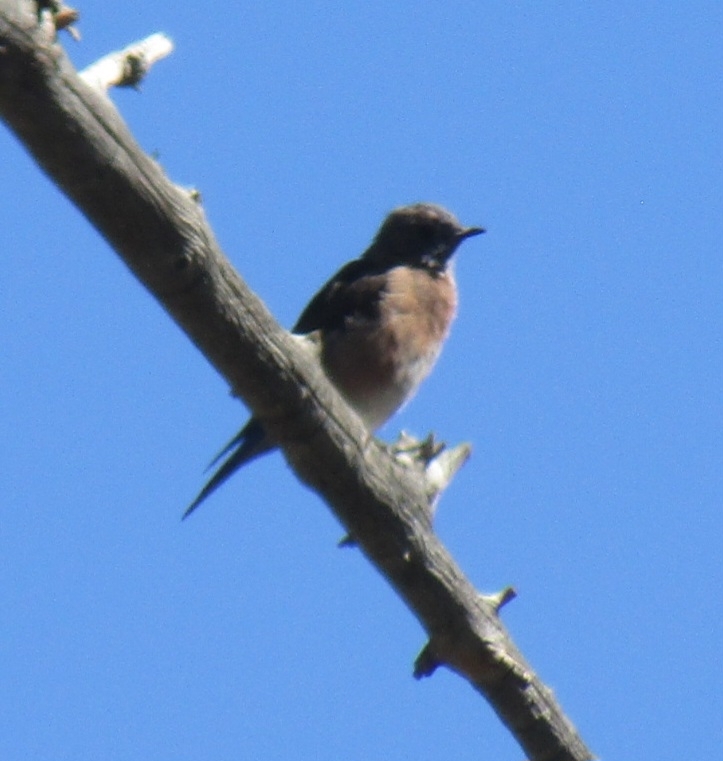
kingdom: Animalia
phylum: Chordata
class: Aves
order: Passeriformes
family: Turdidae
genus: Sialia
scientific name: Sialia mexicana
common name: Western bluebird
